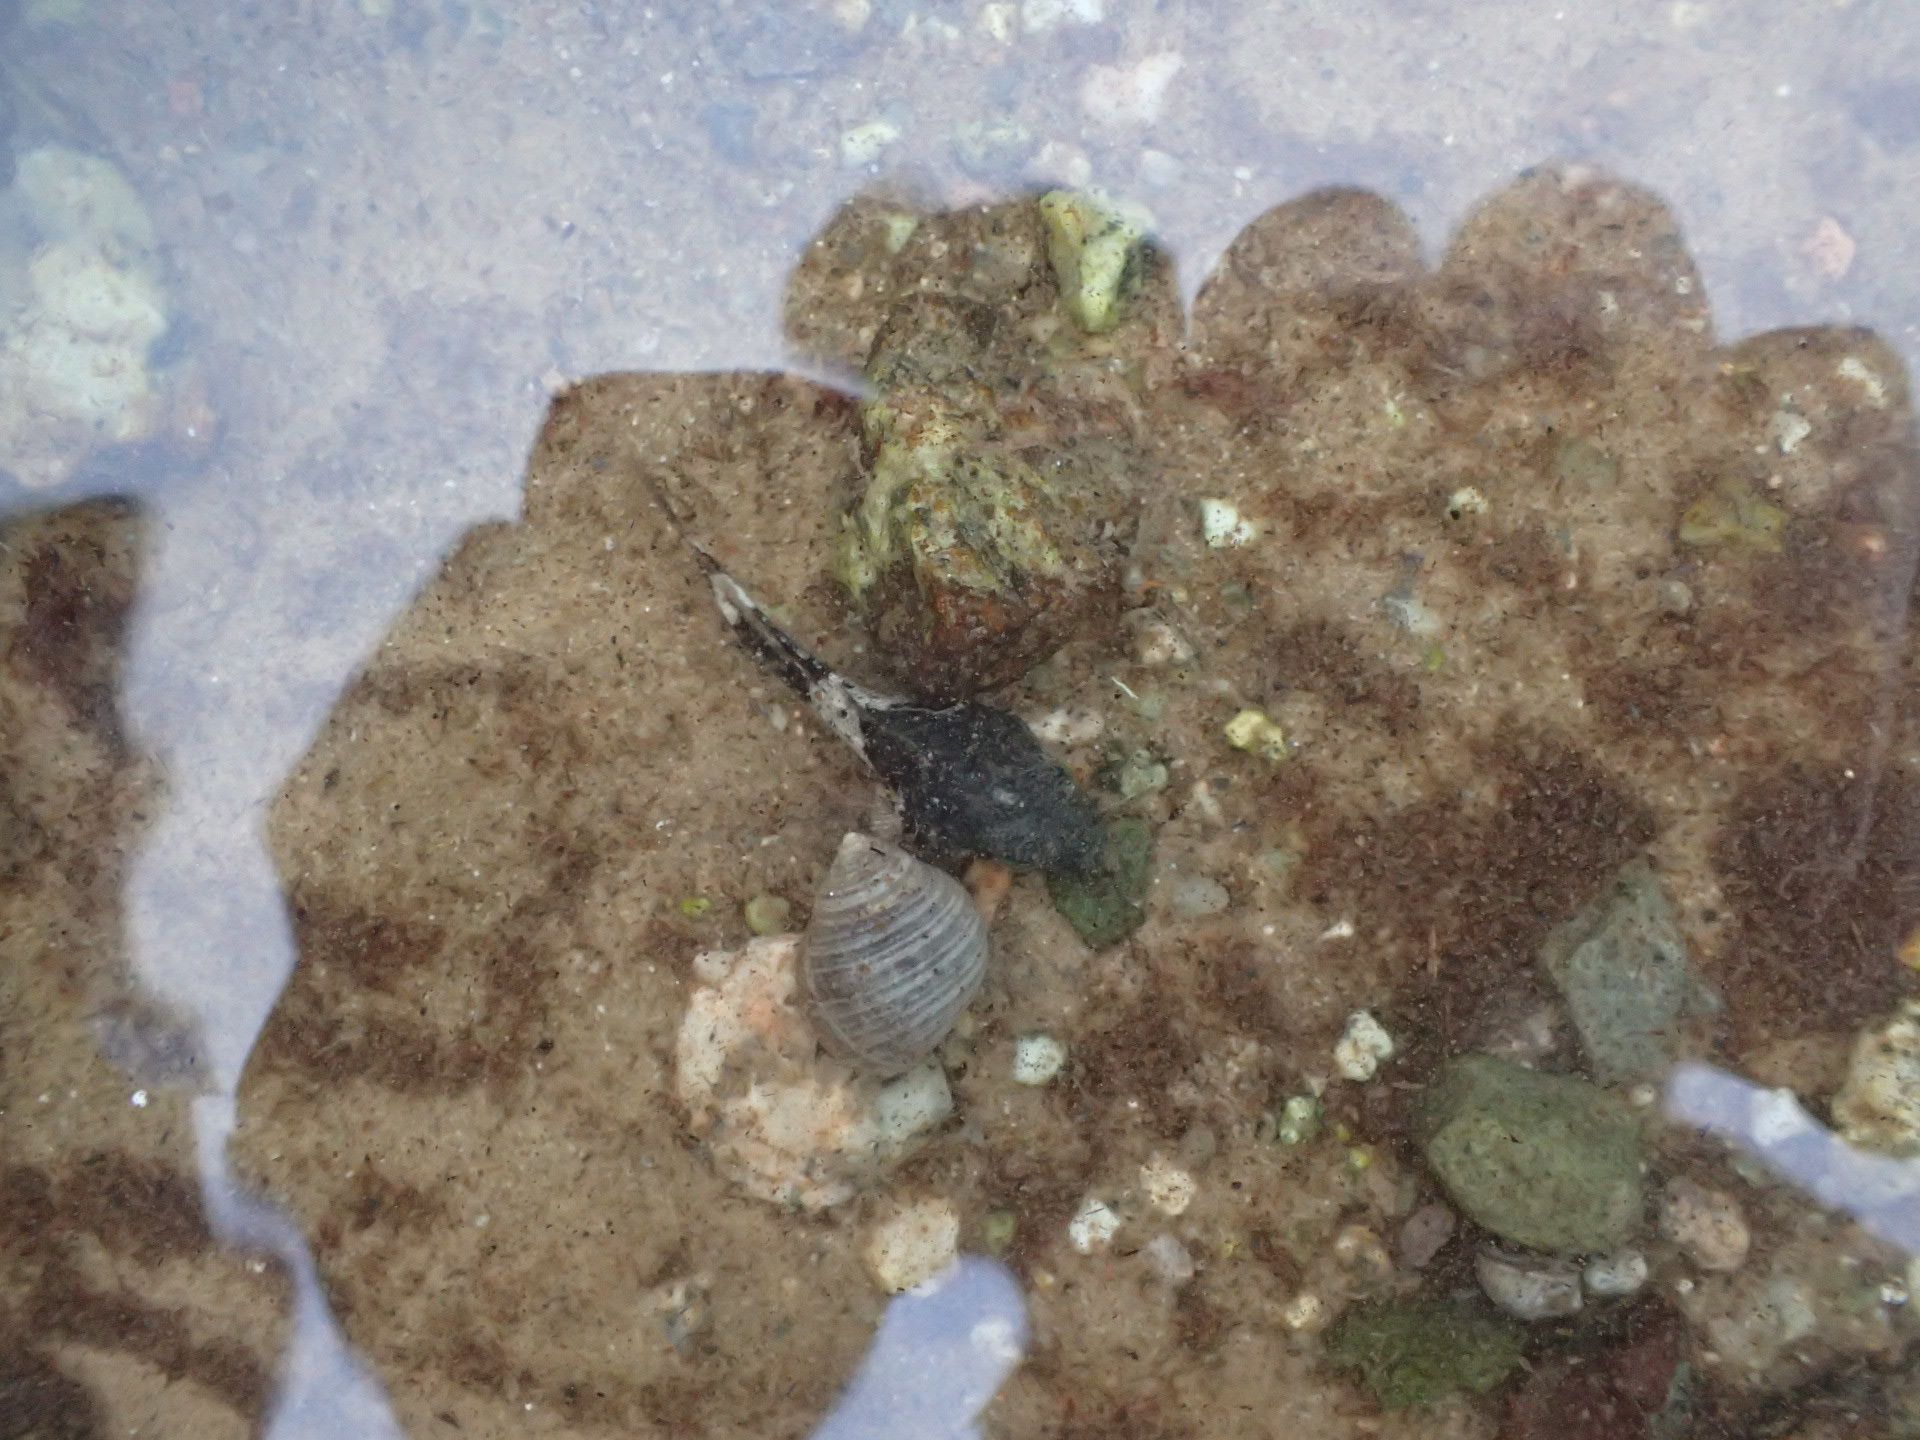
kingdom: Animalia
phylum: Mollusca
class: Gastropoda
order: Littorinimorpha
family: Littorinidae
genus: Littorina
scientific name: Littorina littorea
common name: Common periwinkle
